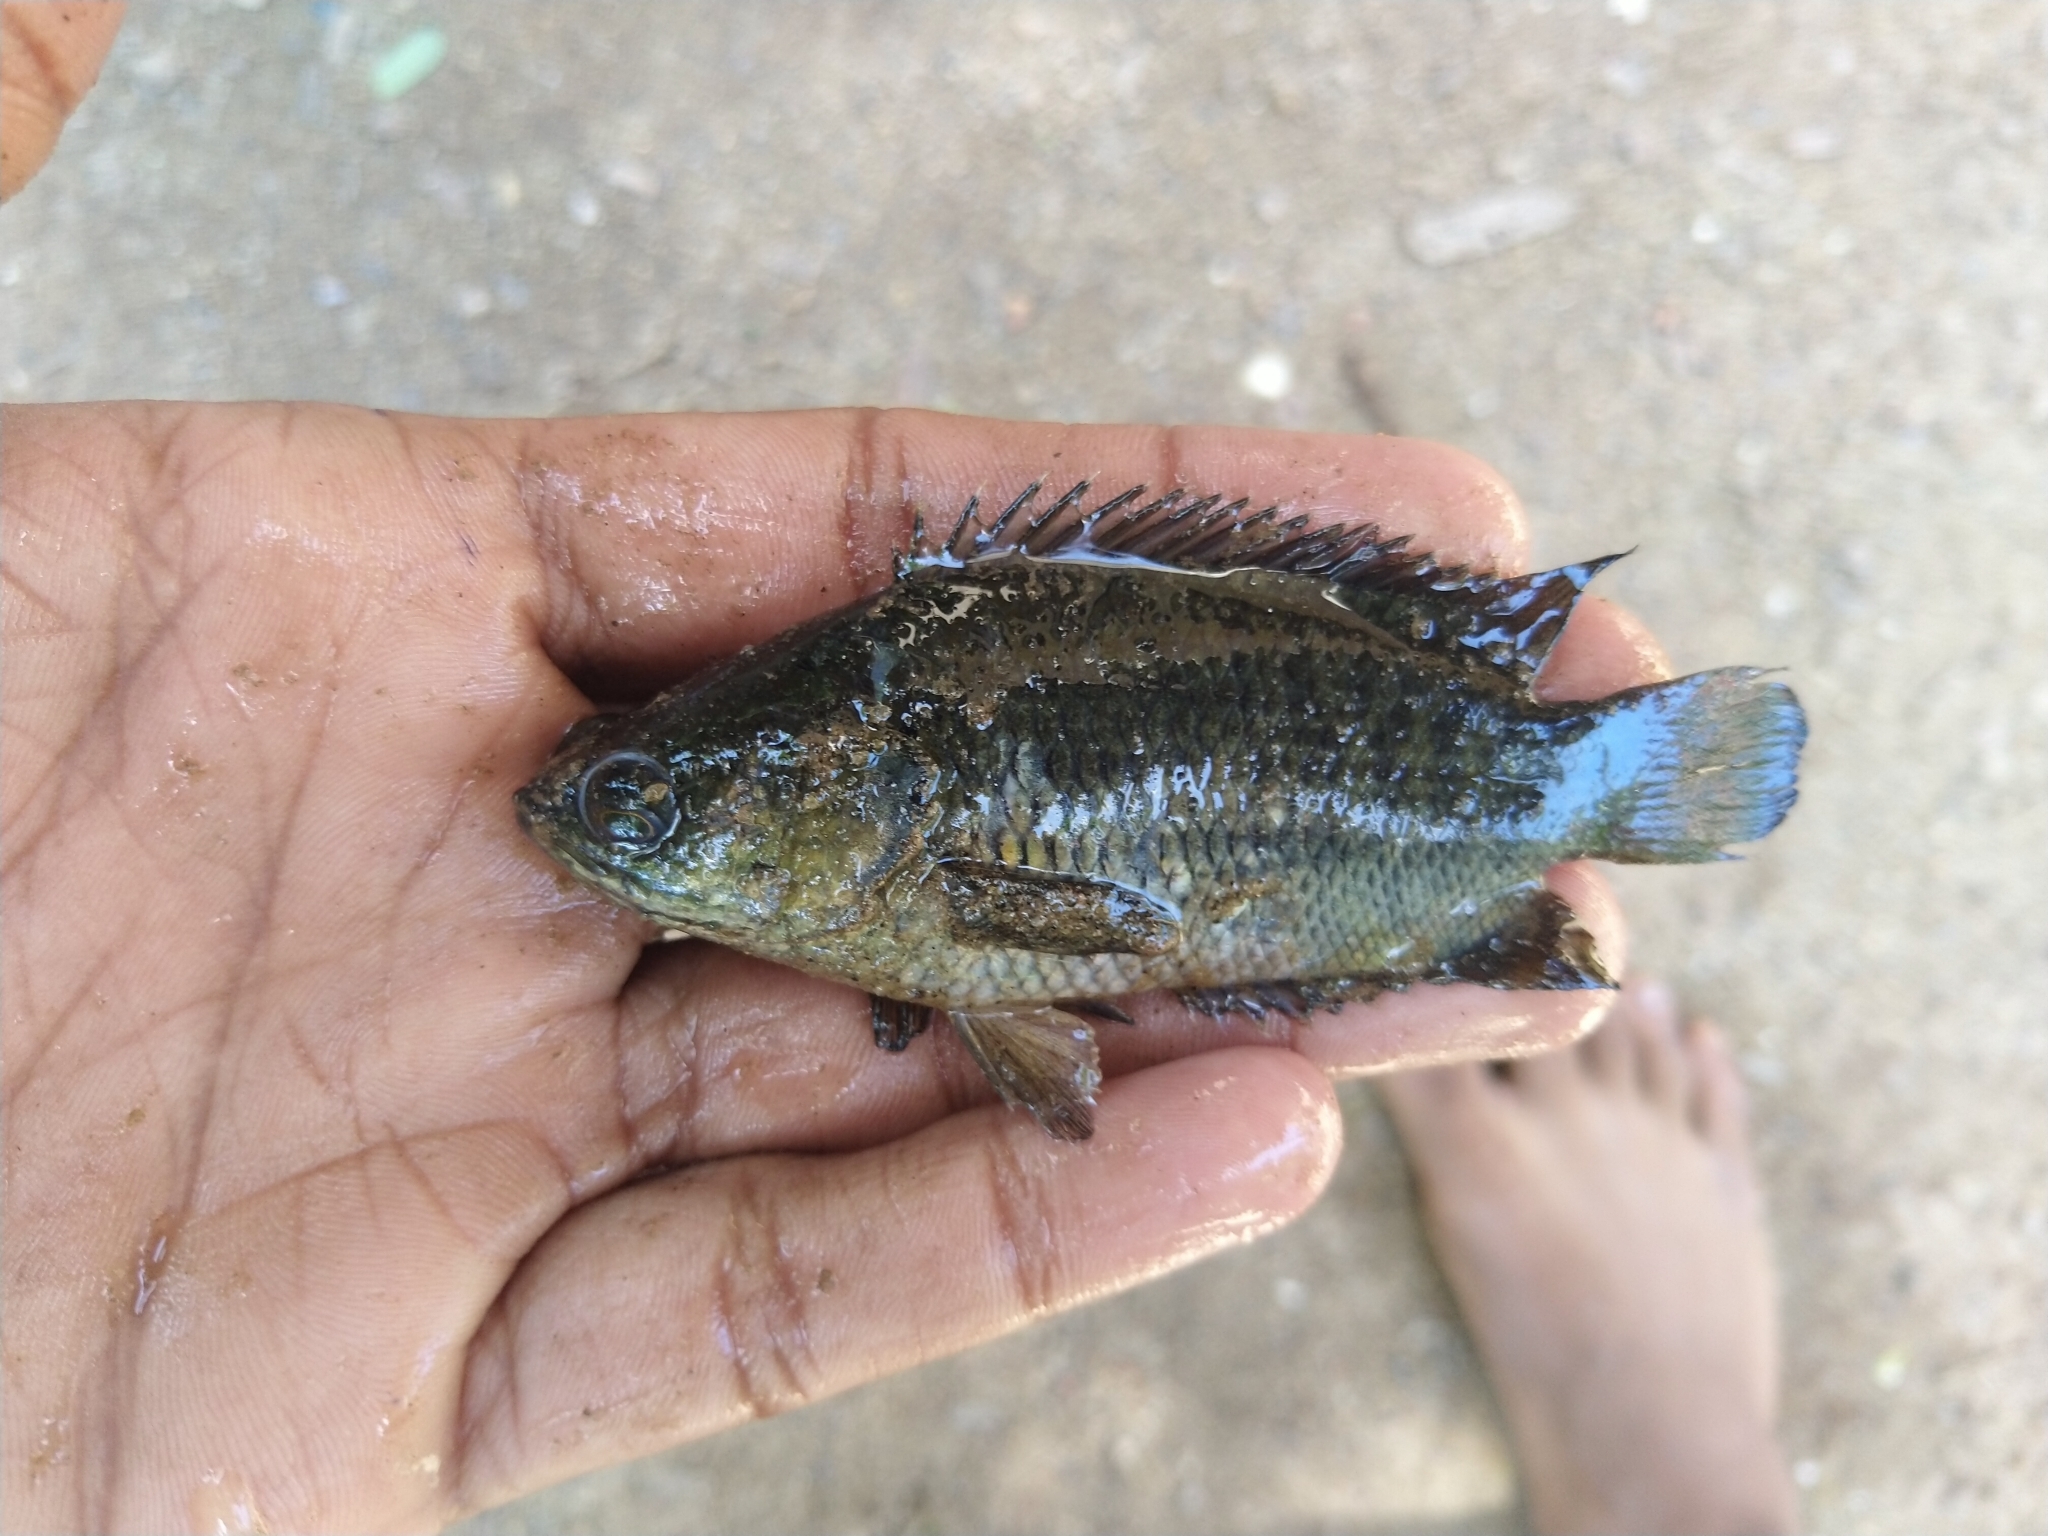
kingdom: Animalia
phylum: Chordata
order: Perciformes
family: Anabantidae
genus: Anabas
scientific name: Anabas testudineus
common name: Climbing perch
